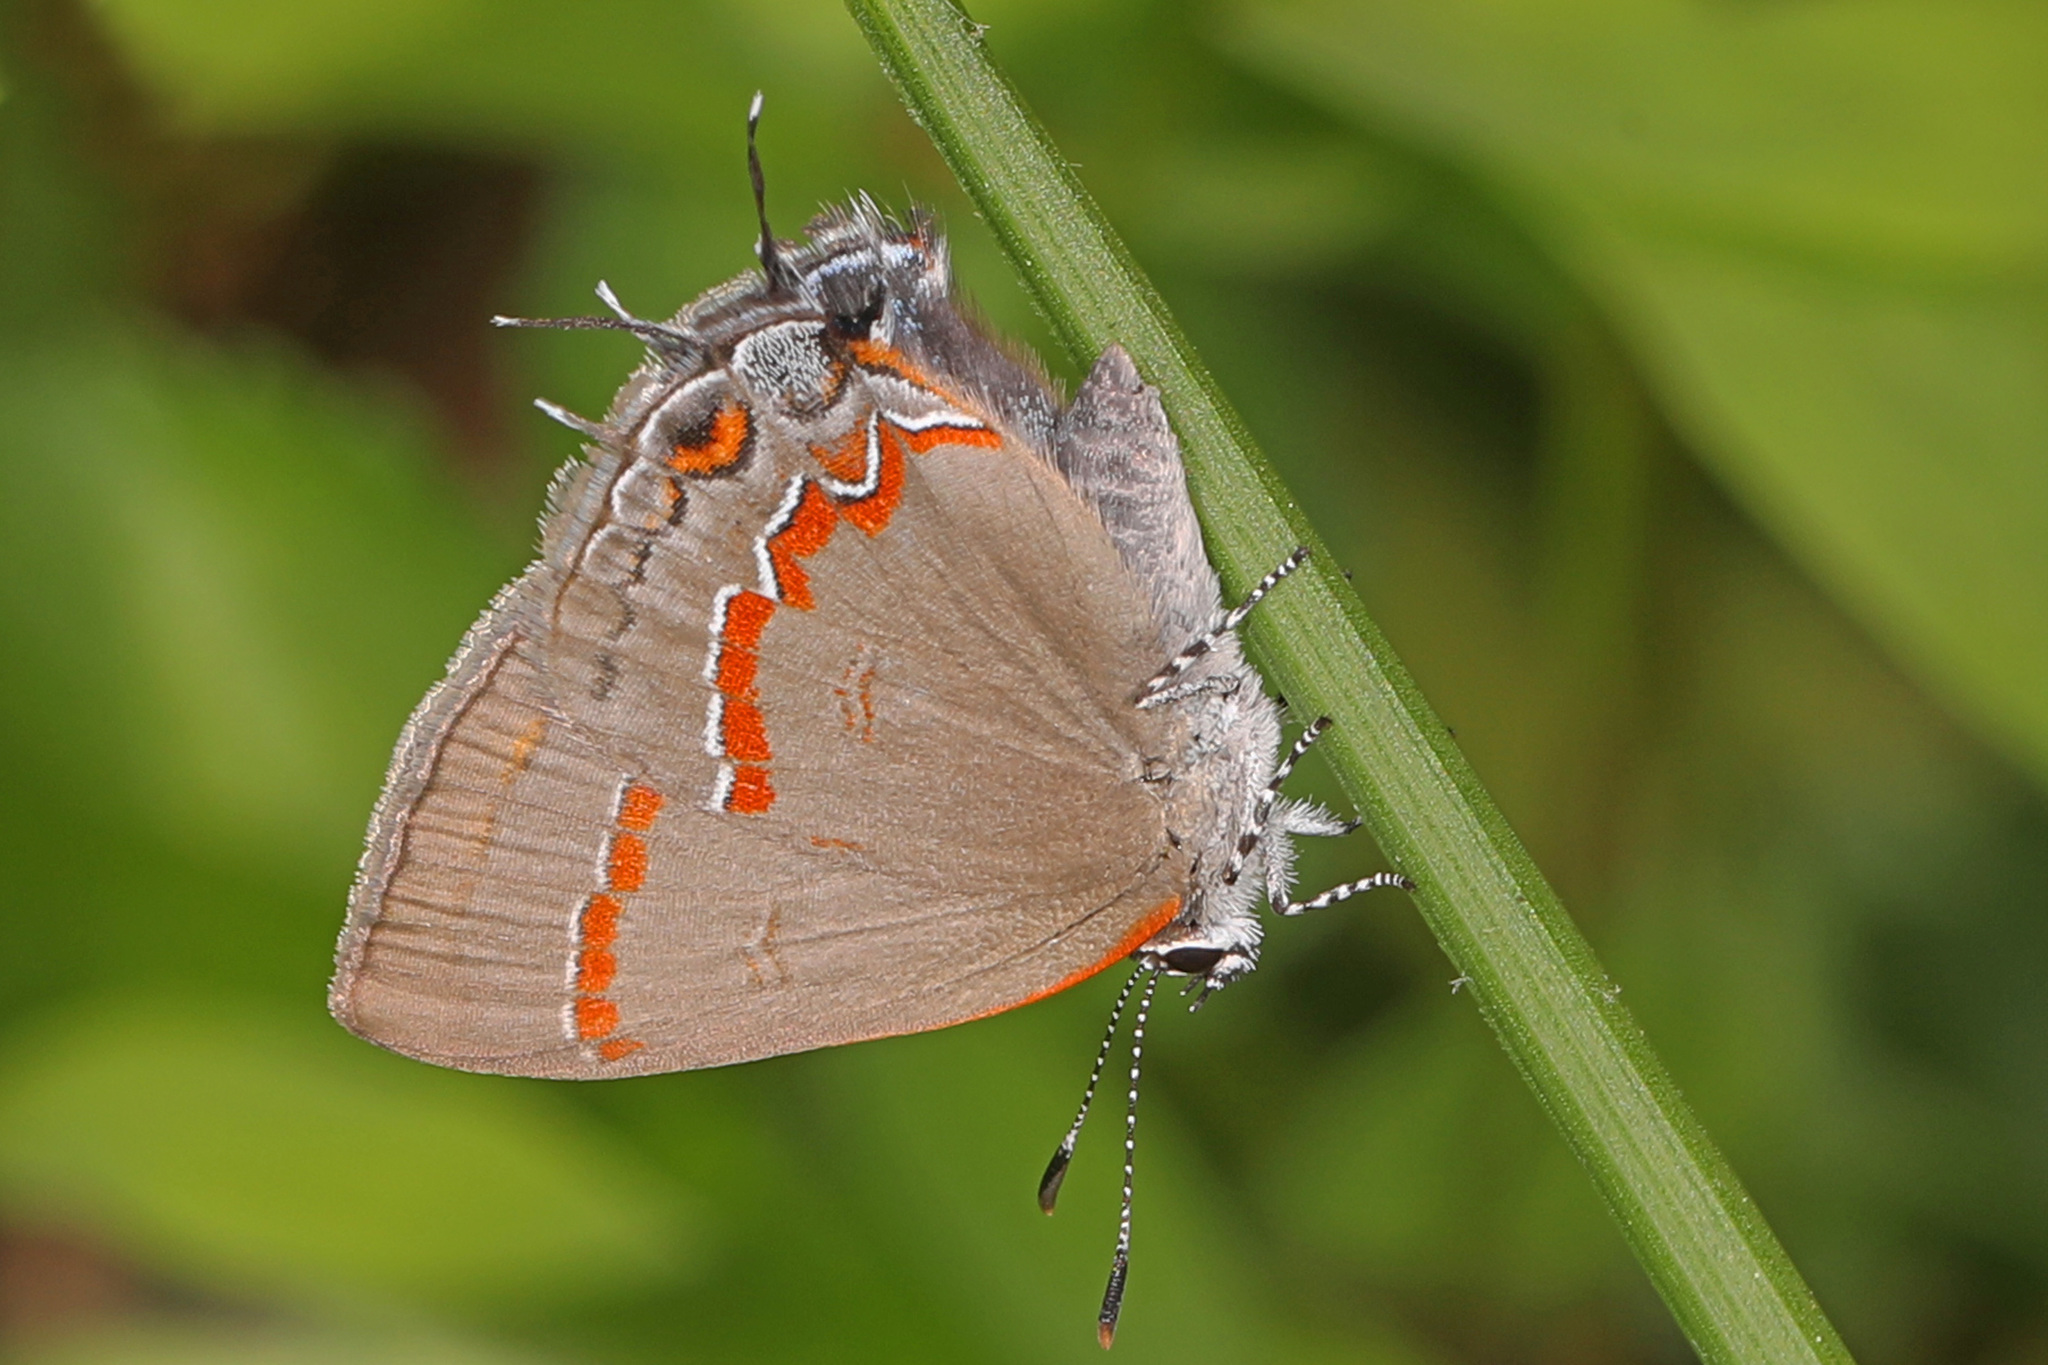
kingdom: Animalia
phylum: Arthropoda
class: Insecta
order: Lepidoptera
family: Lycaenidae
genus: Calycopis
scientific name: Calycopis cecrops
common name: Red-banded hairstreak
